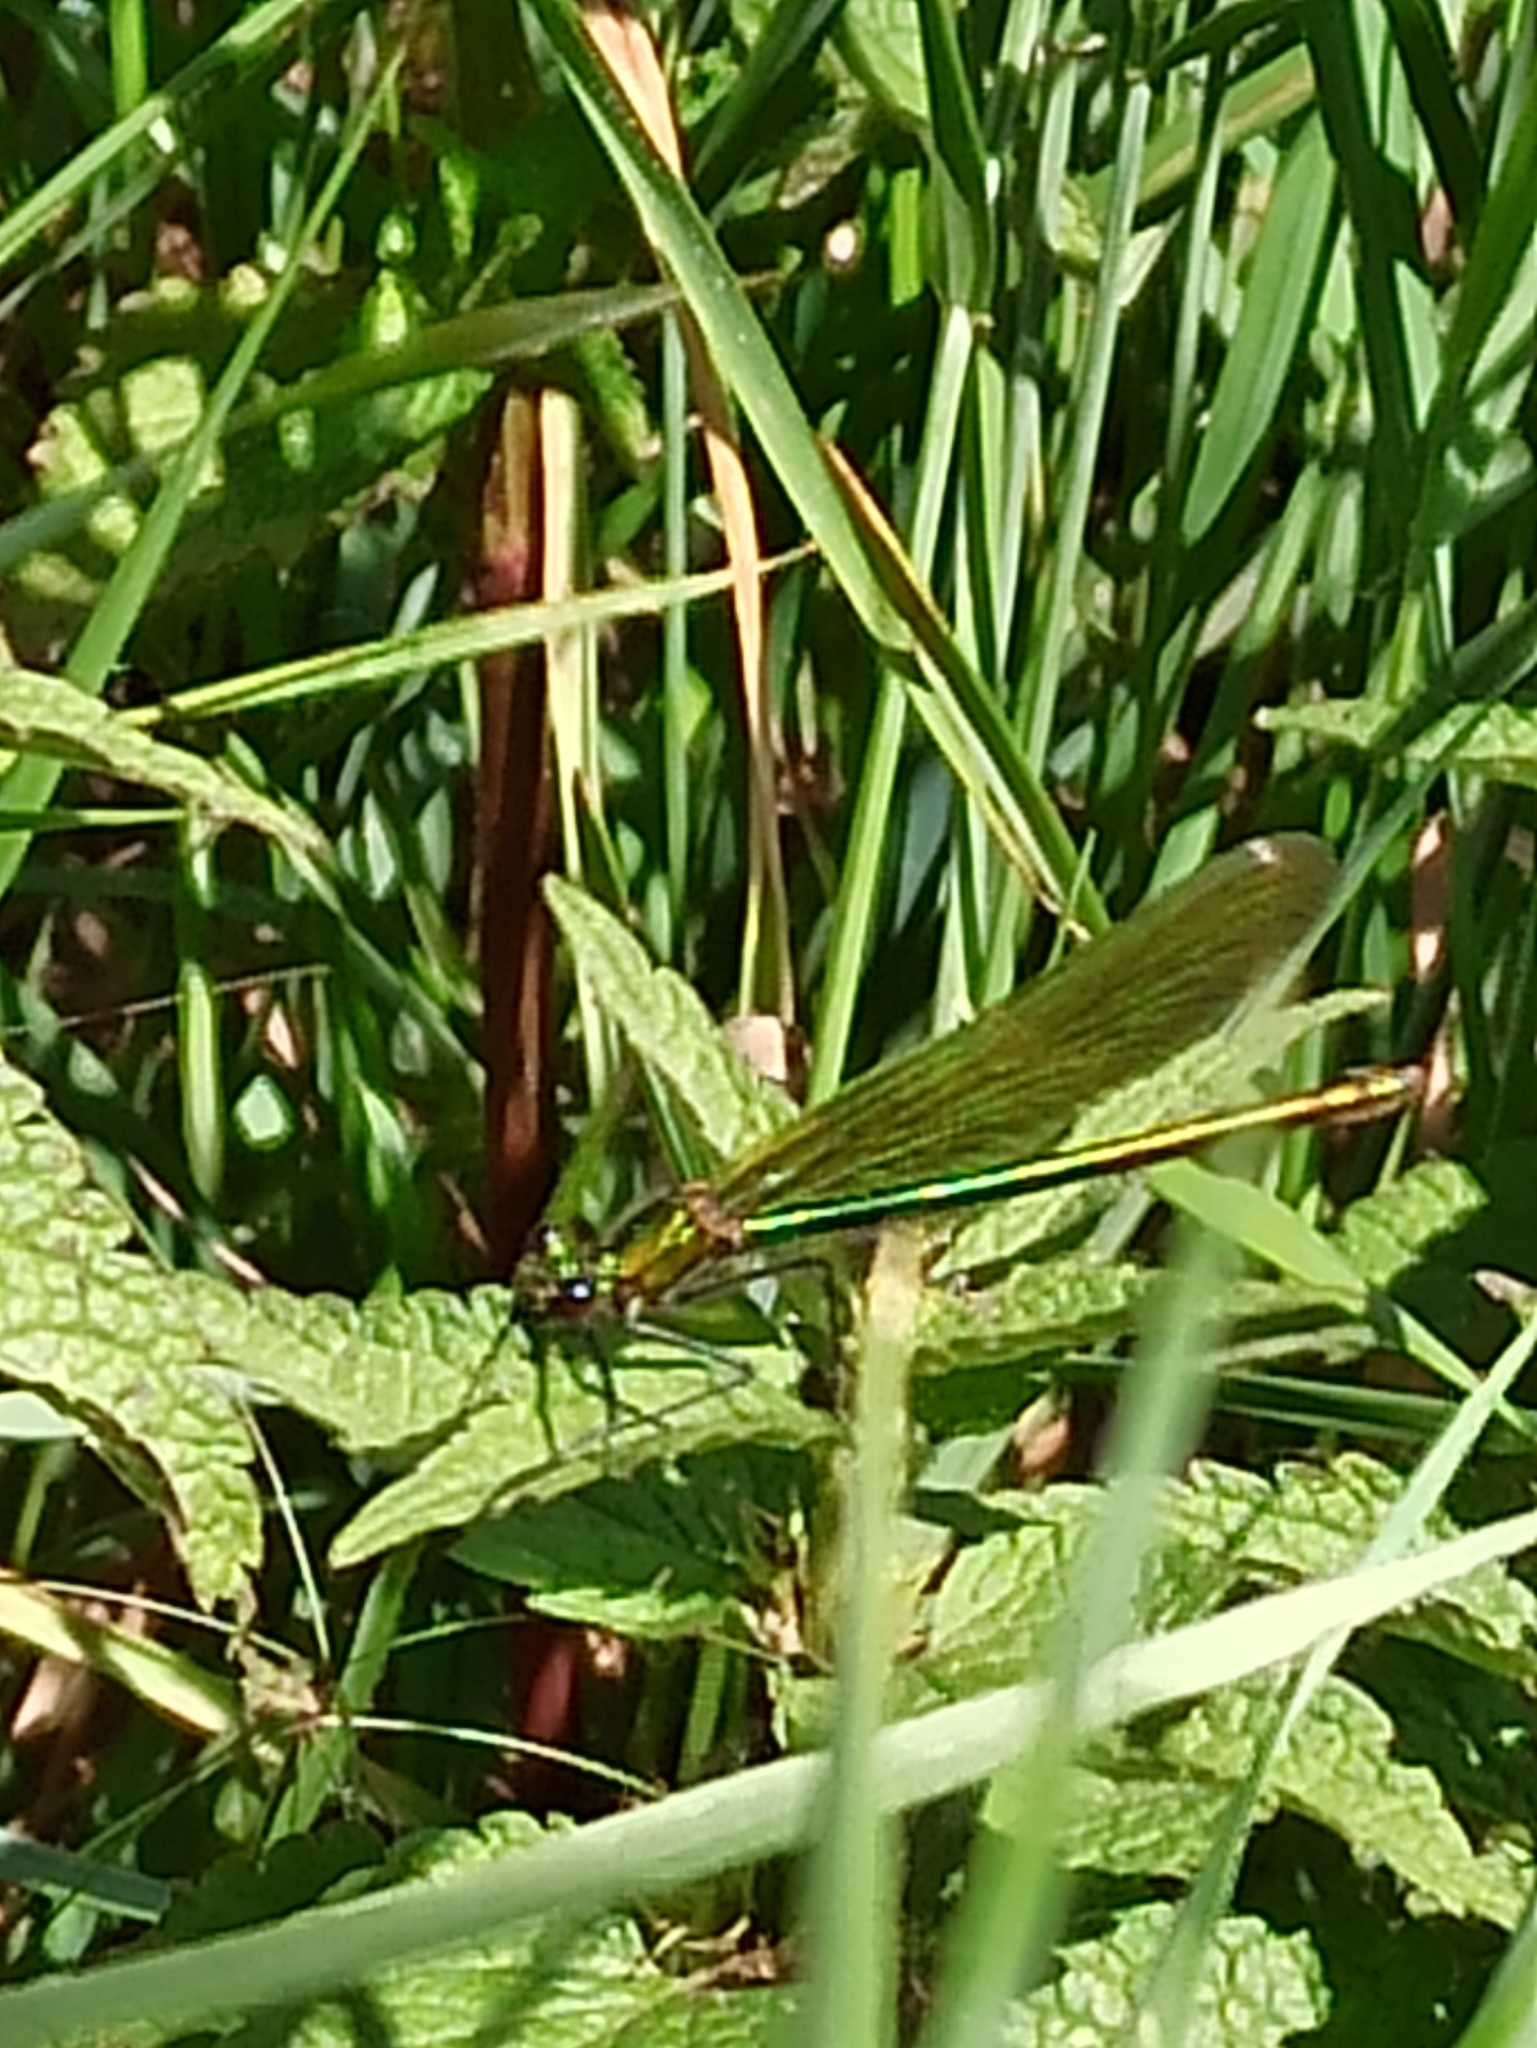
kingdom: Animalia
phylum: Arthropoda
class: Insecta
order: Odonata
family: Calopterygidae
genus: Calopteryx
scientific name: Calopteryx splendens
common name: Banded demoiselle
